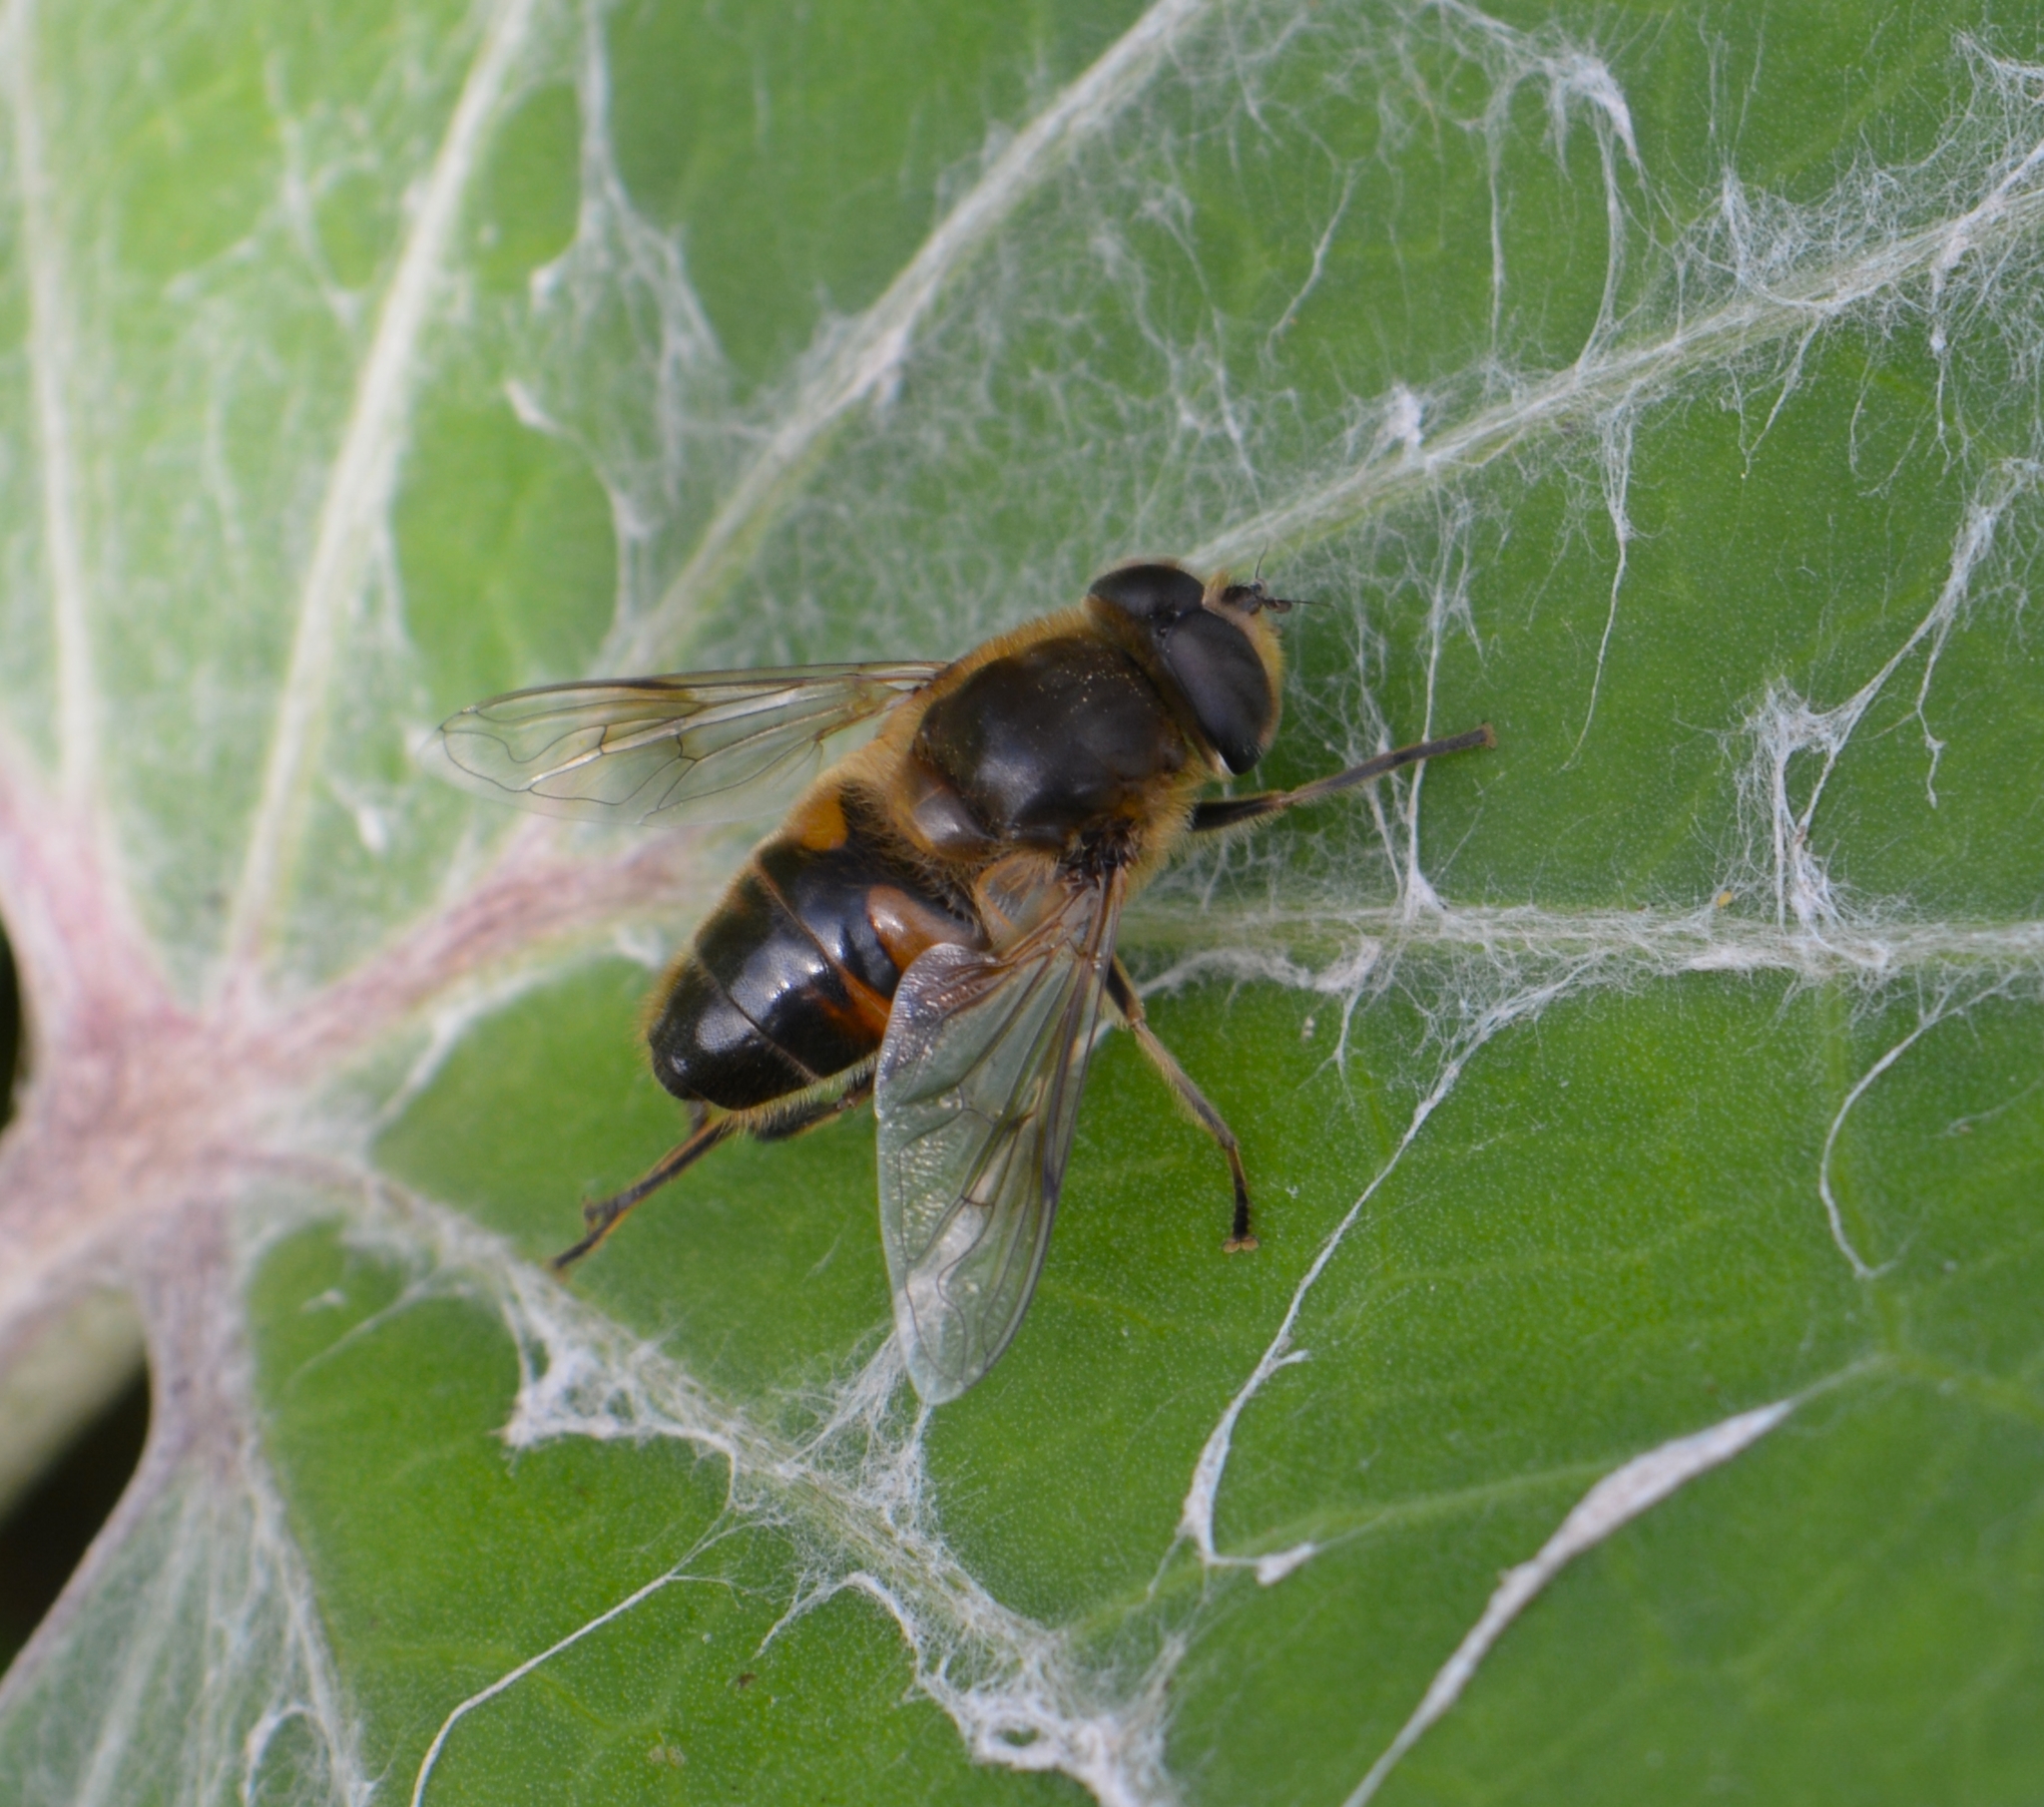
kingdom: Animalia
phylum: Arthropoda
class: Insecta
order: Diptera
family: Syrphidae
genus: Eristalis
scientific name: Eristalis tenax
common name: Drone fly
